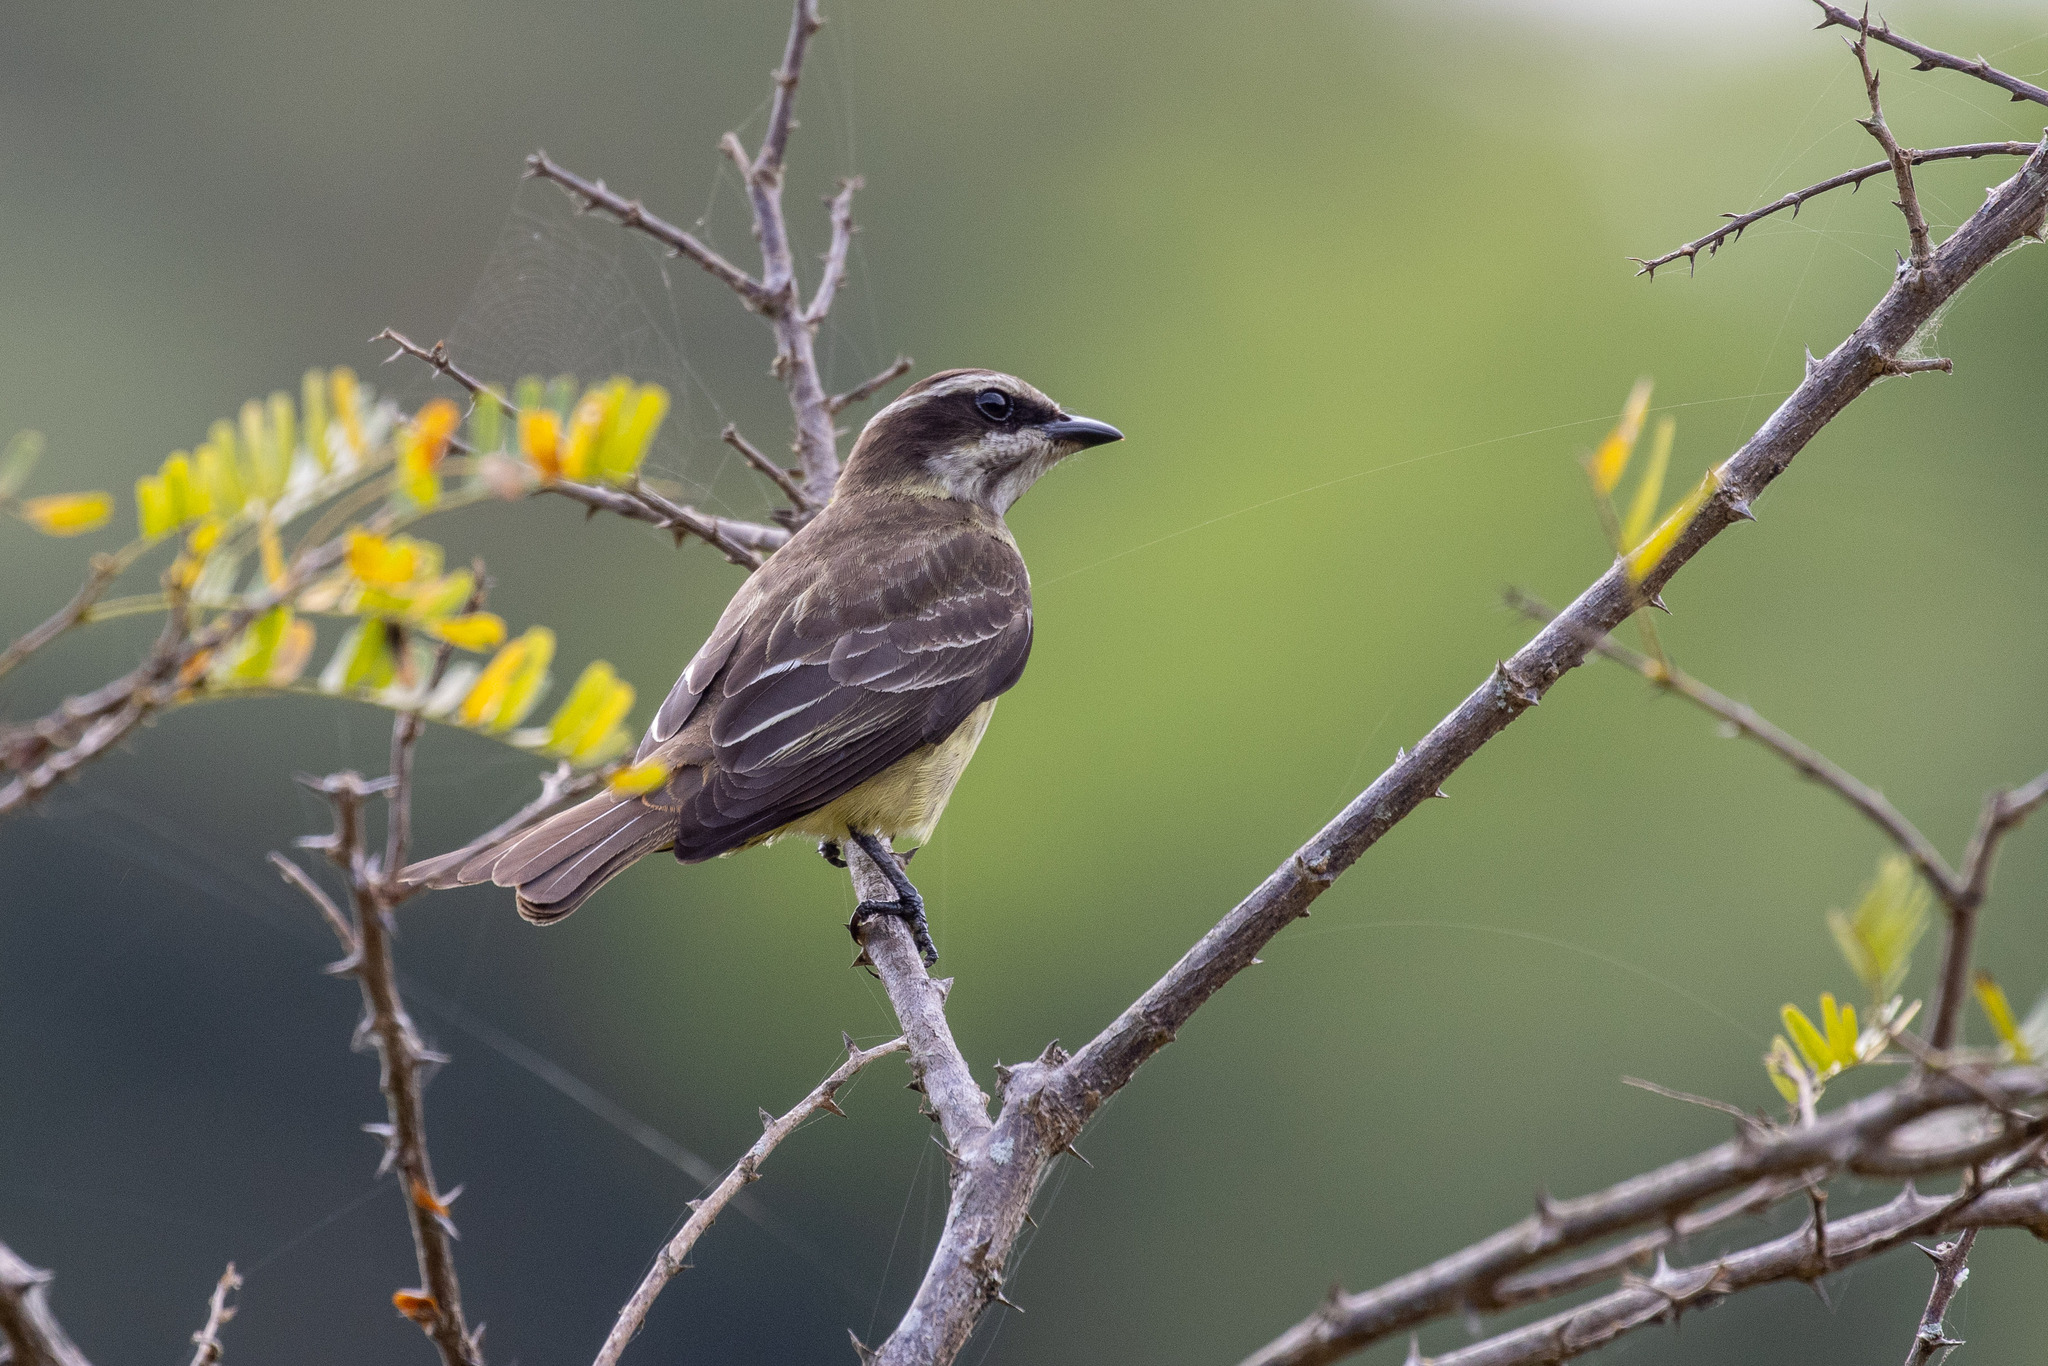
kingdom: Animalia
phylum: Chordata
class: Aves
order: Passeriformes
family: Tyrannidae
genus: Legatus
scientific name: Legatus leucophaius
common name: Piratic flycatcher
